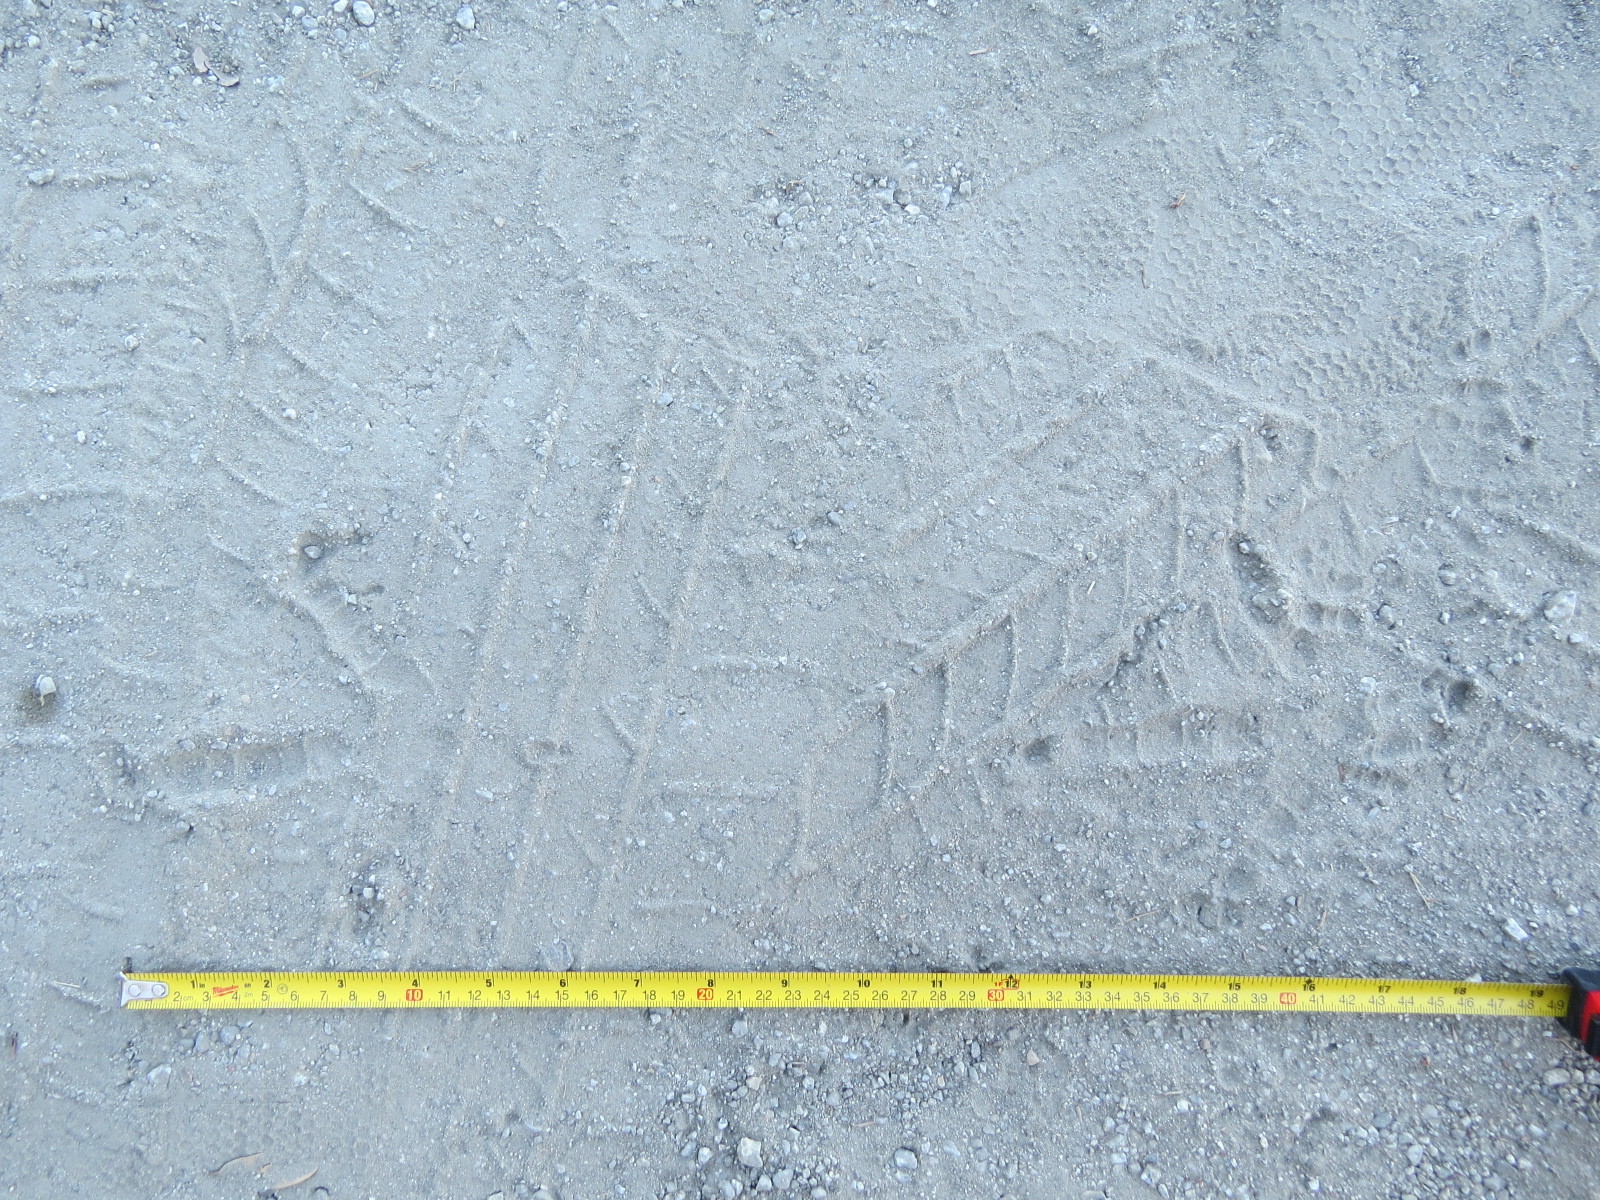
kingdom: Animalia
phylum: Chordata
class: Aves
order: Galliformes
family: Phasianidae
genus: Meleagris
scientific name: Meleagris gallopavo
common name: Wild turkey
